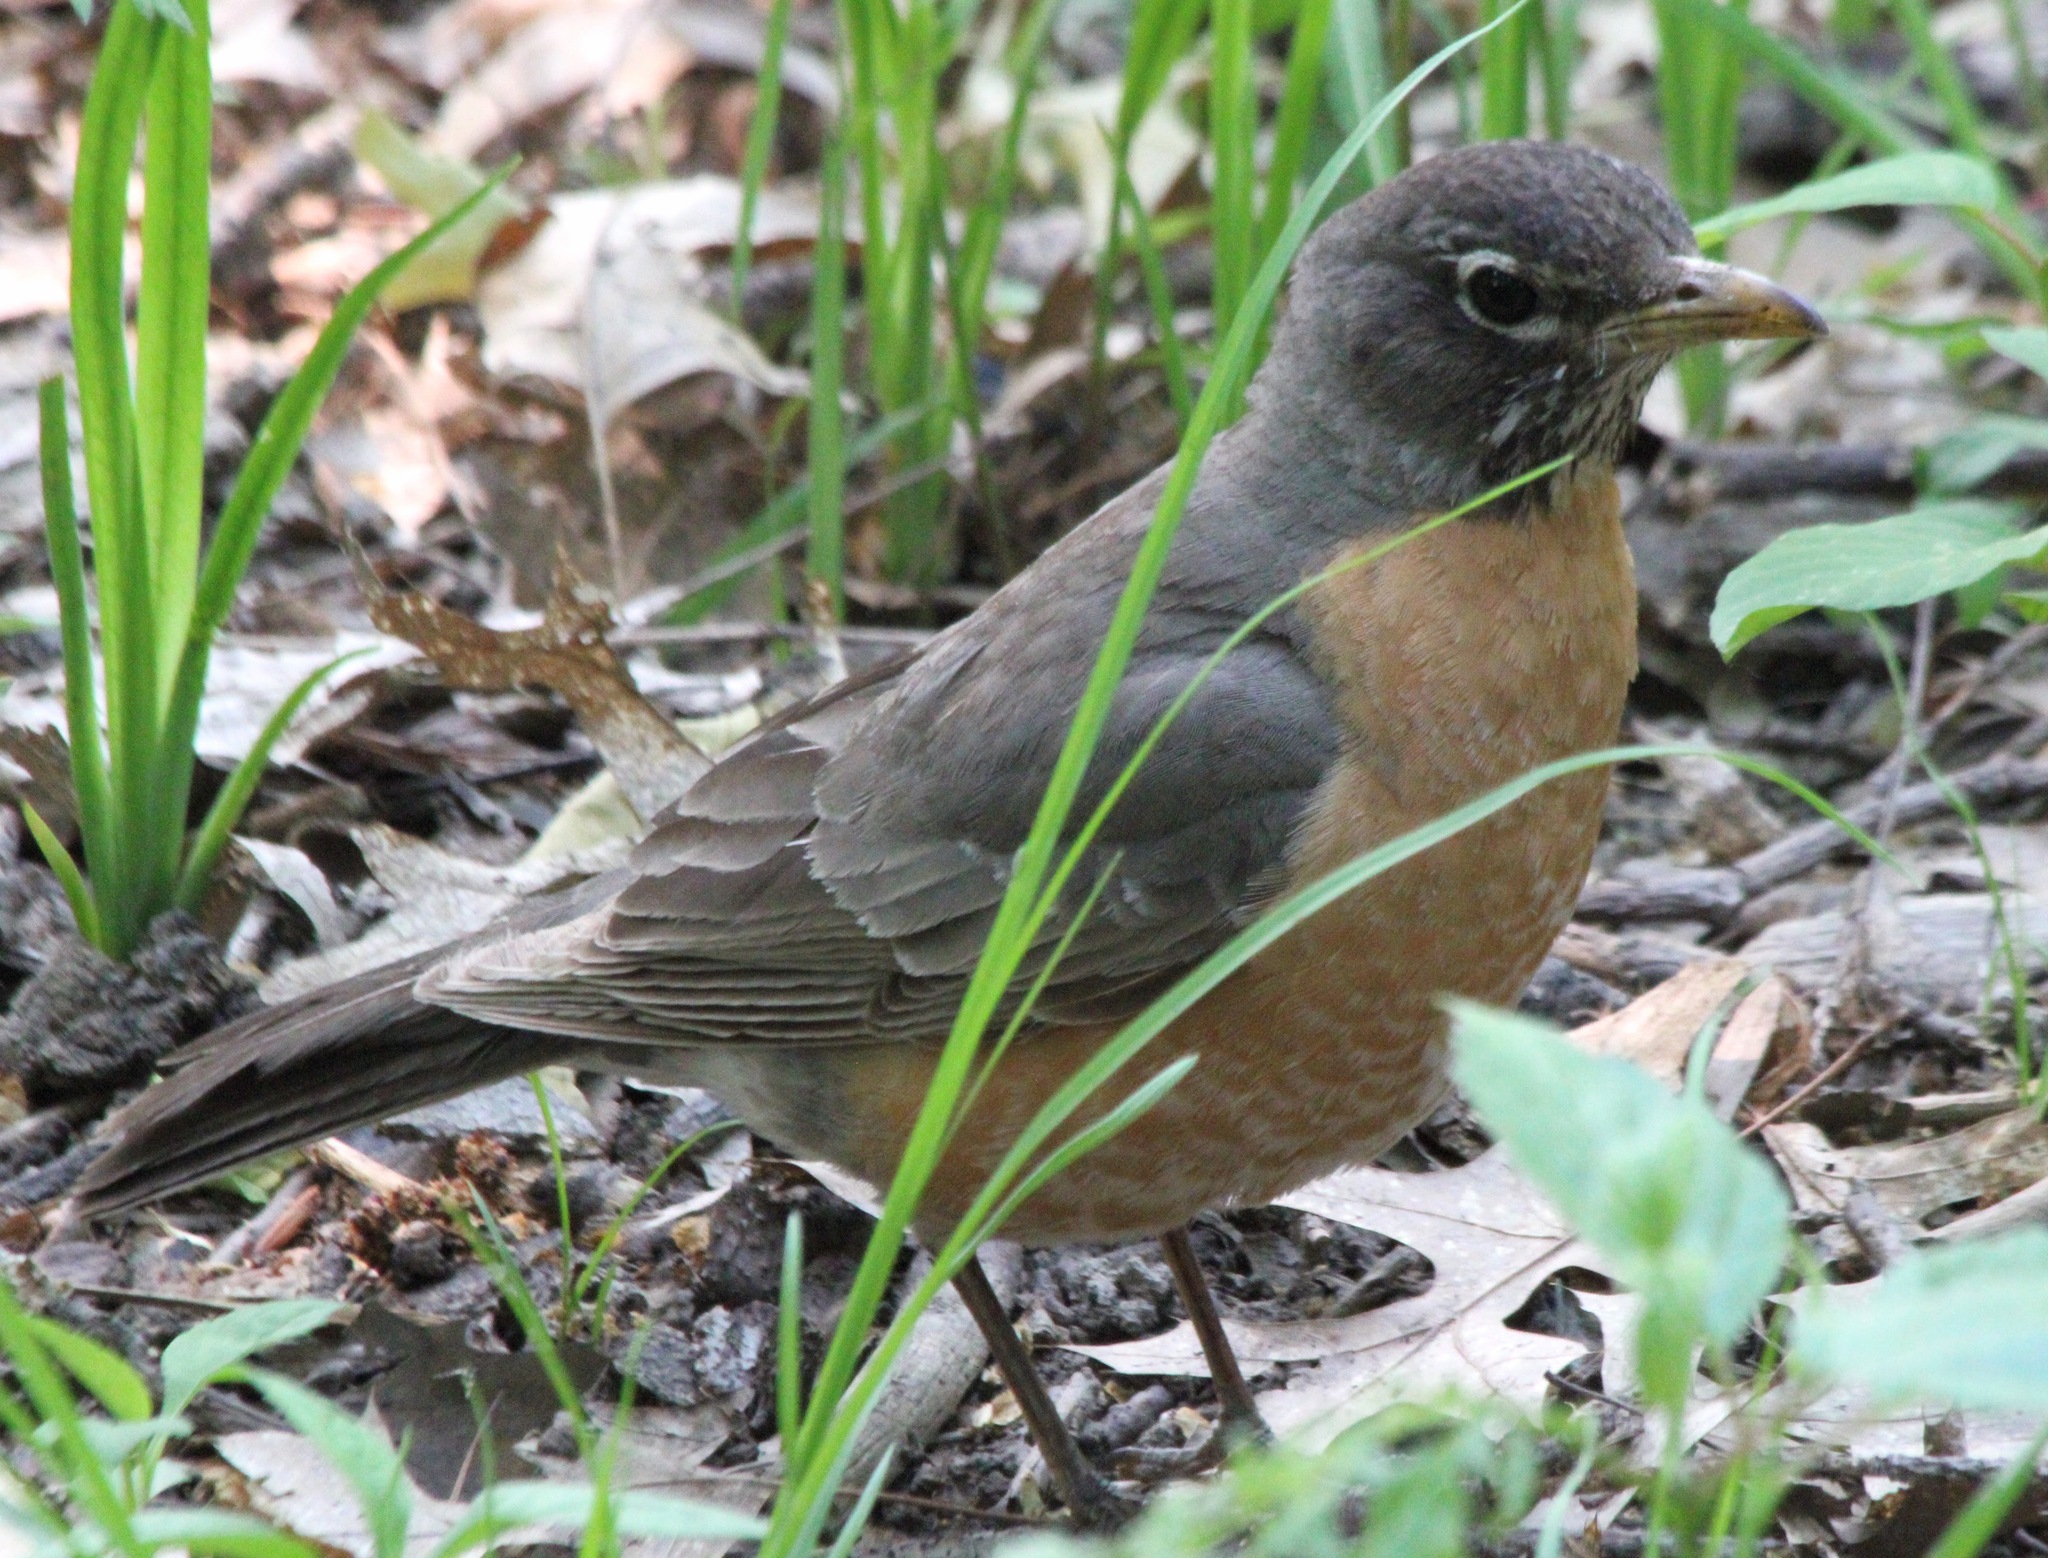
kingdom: Animalia
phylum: Chordata
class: Aves
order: Passeriformes
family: Turdidae
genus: Turdus
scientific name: Turdus migratorius
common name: American robin
